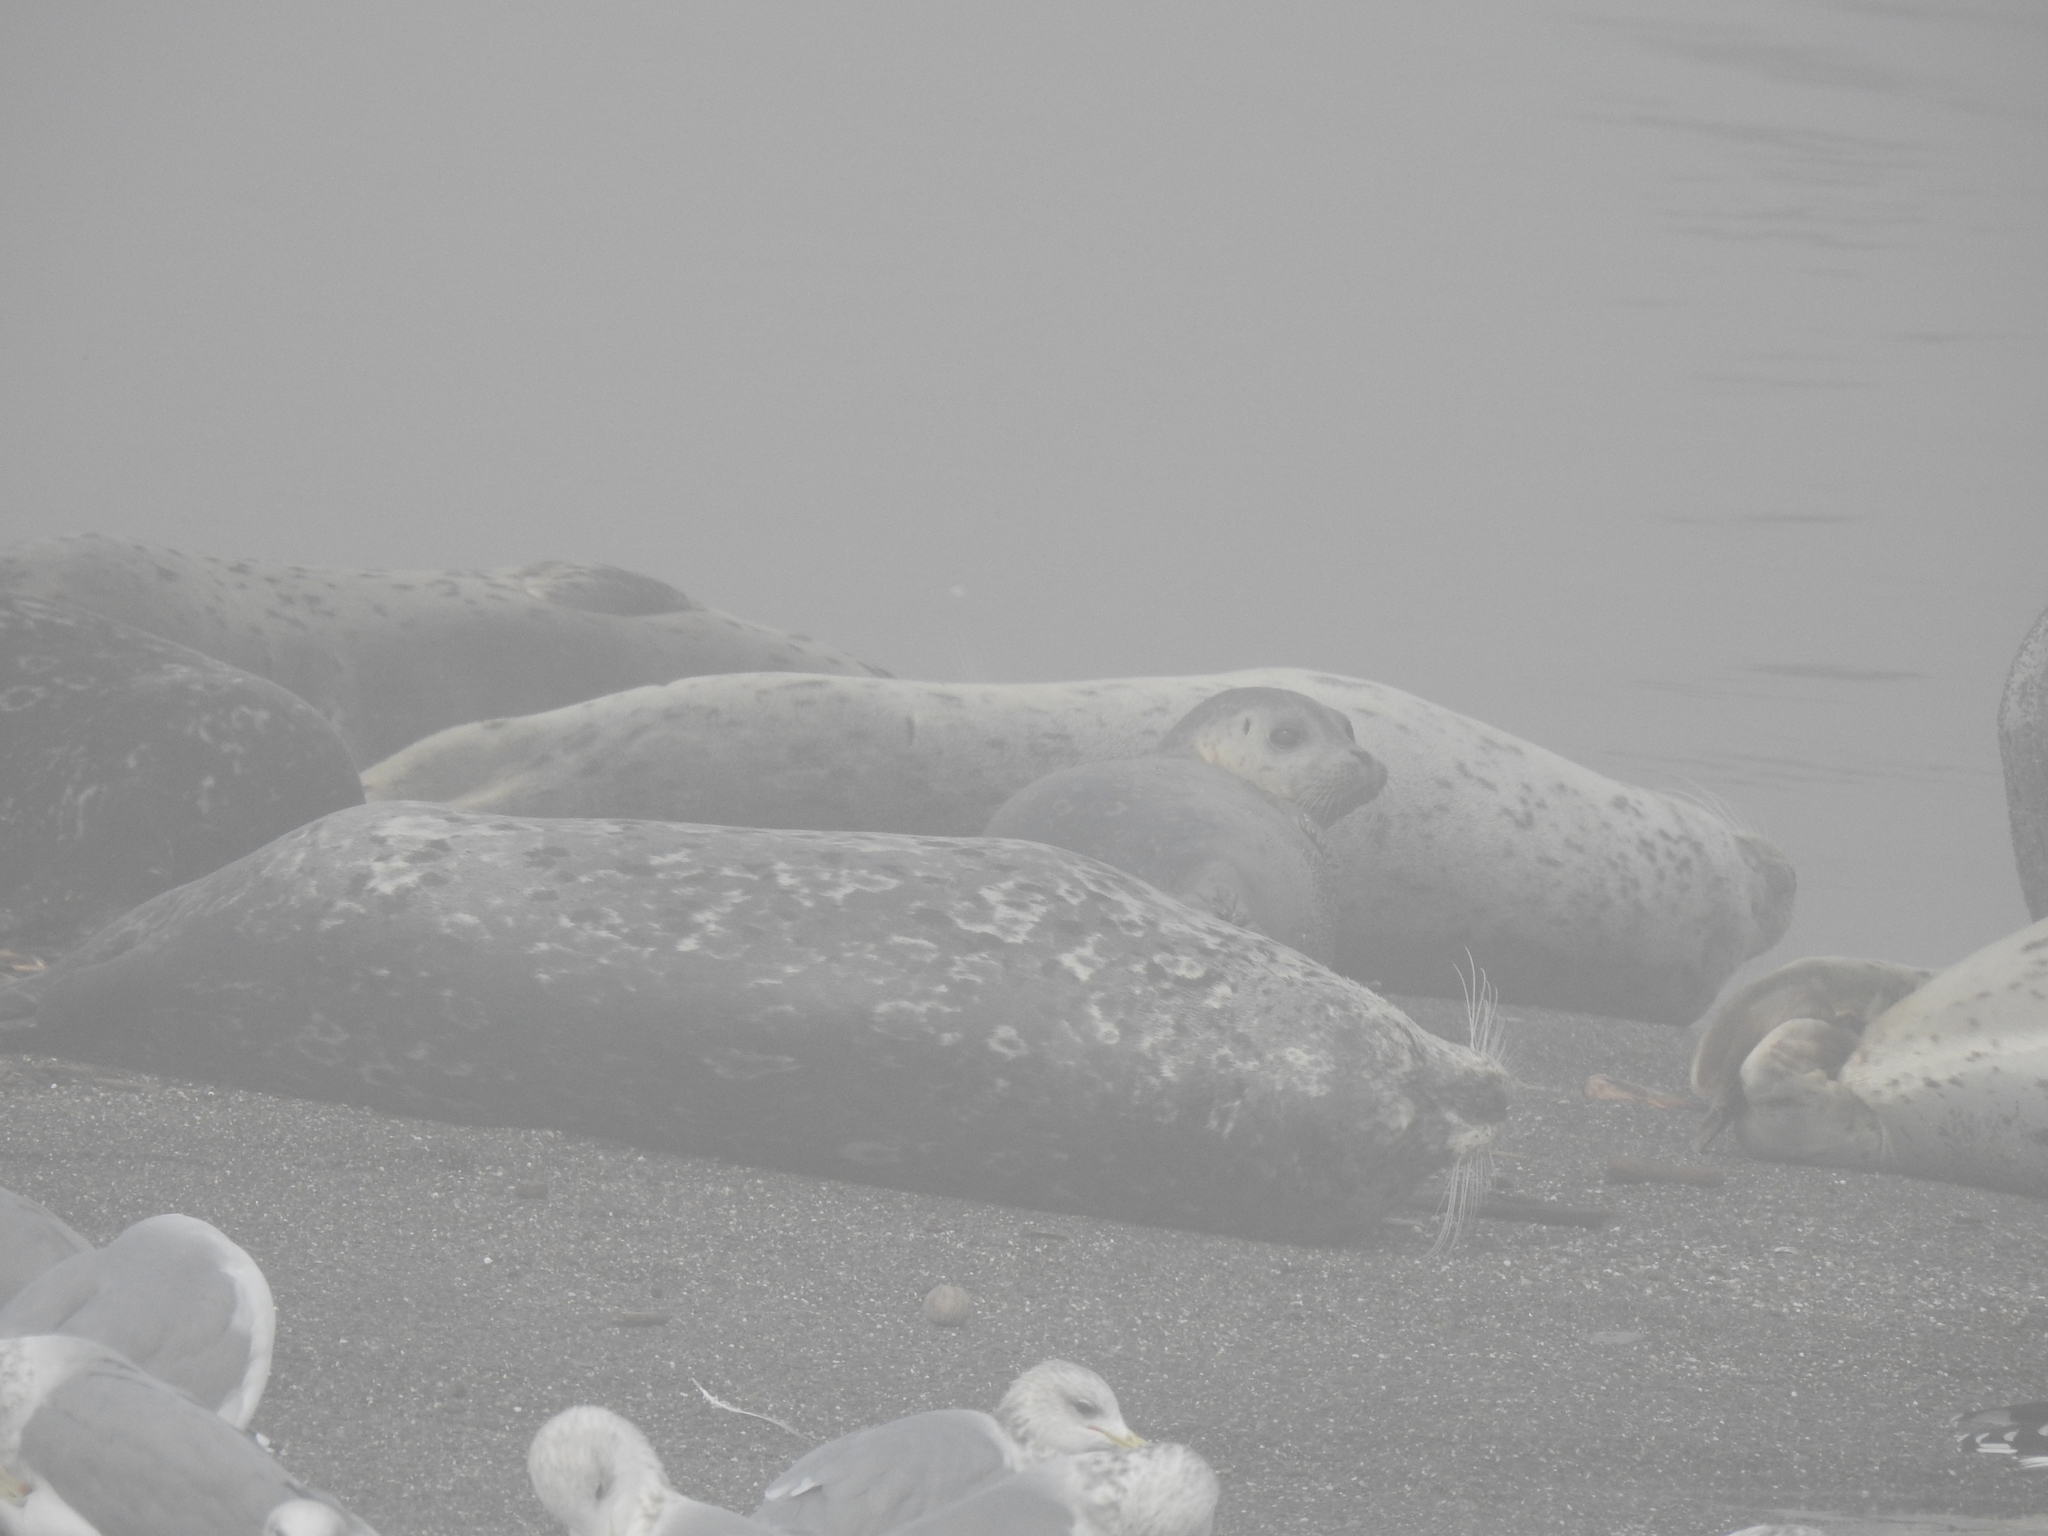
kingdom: Animalia
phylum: Chordata
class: Mammalia
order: Carnivora
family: Phocidae
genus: Phoca
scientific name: Phoca vitulina
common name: Harbor seal
